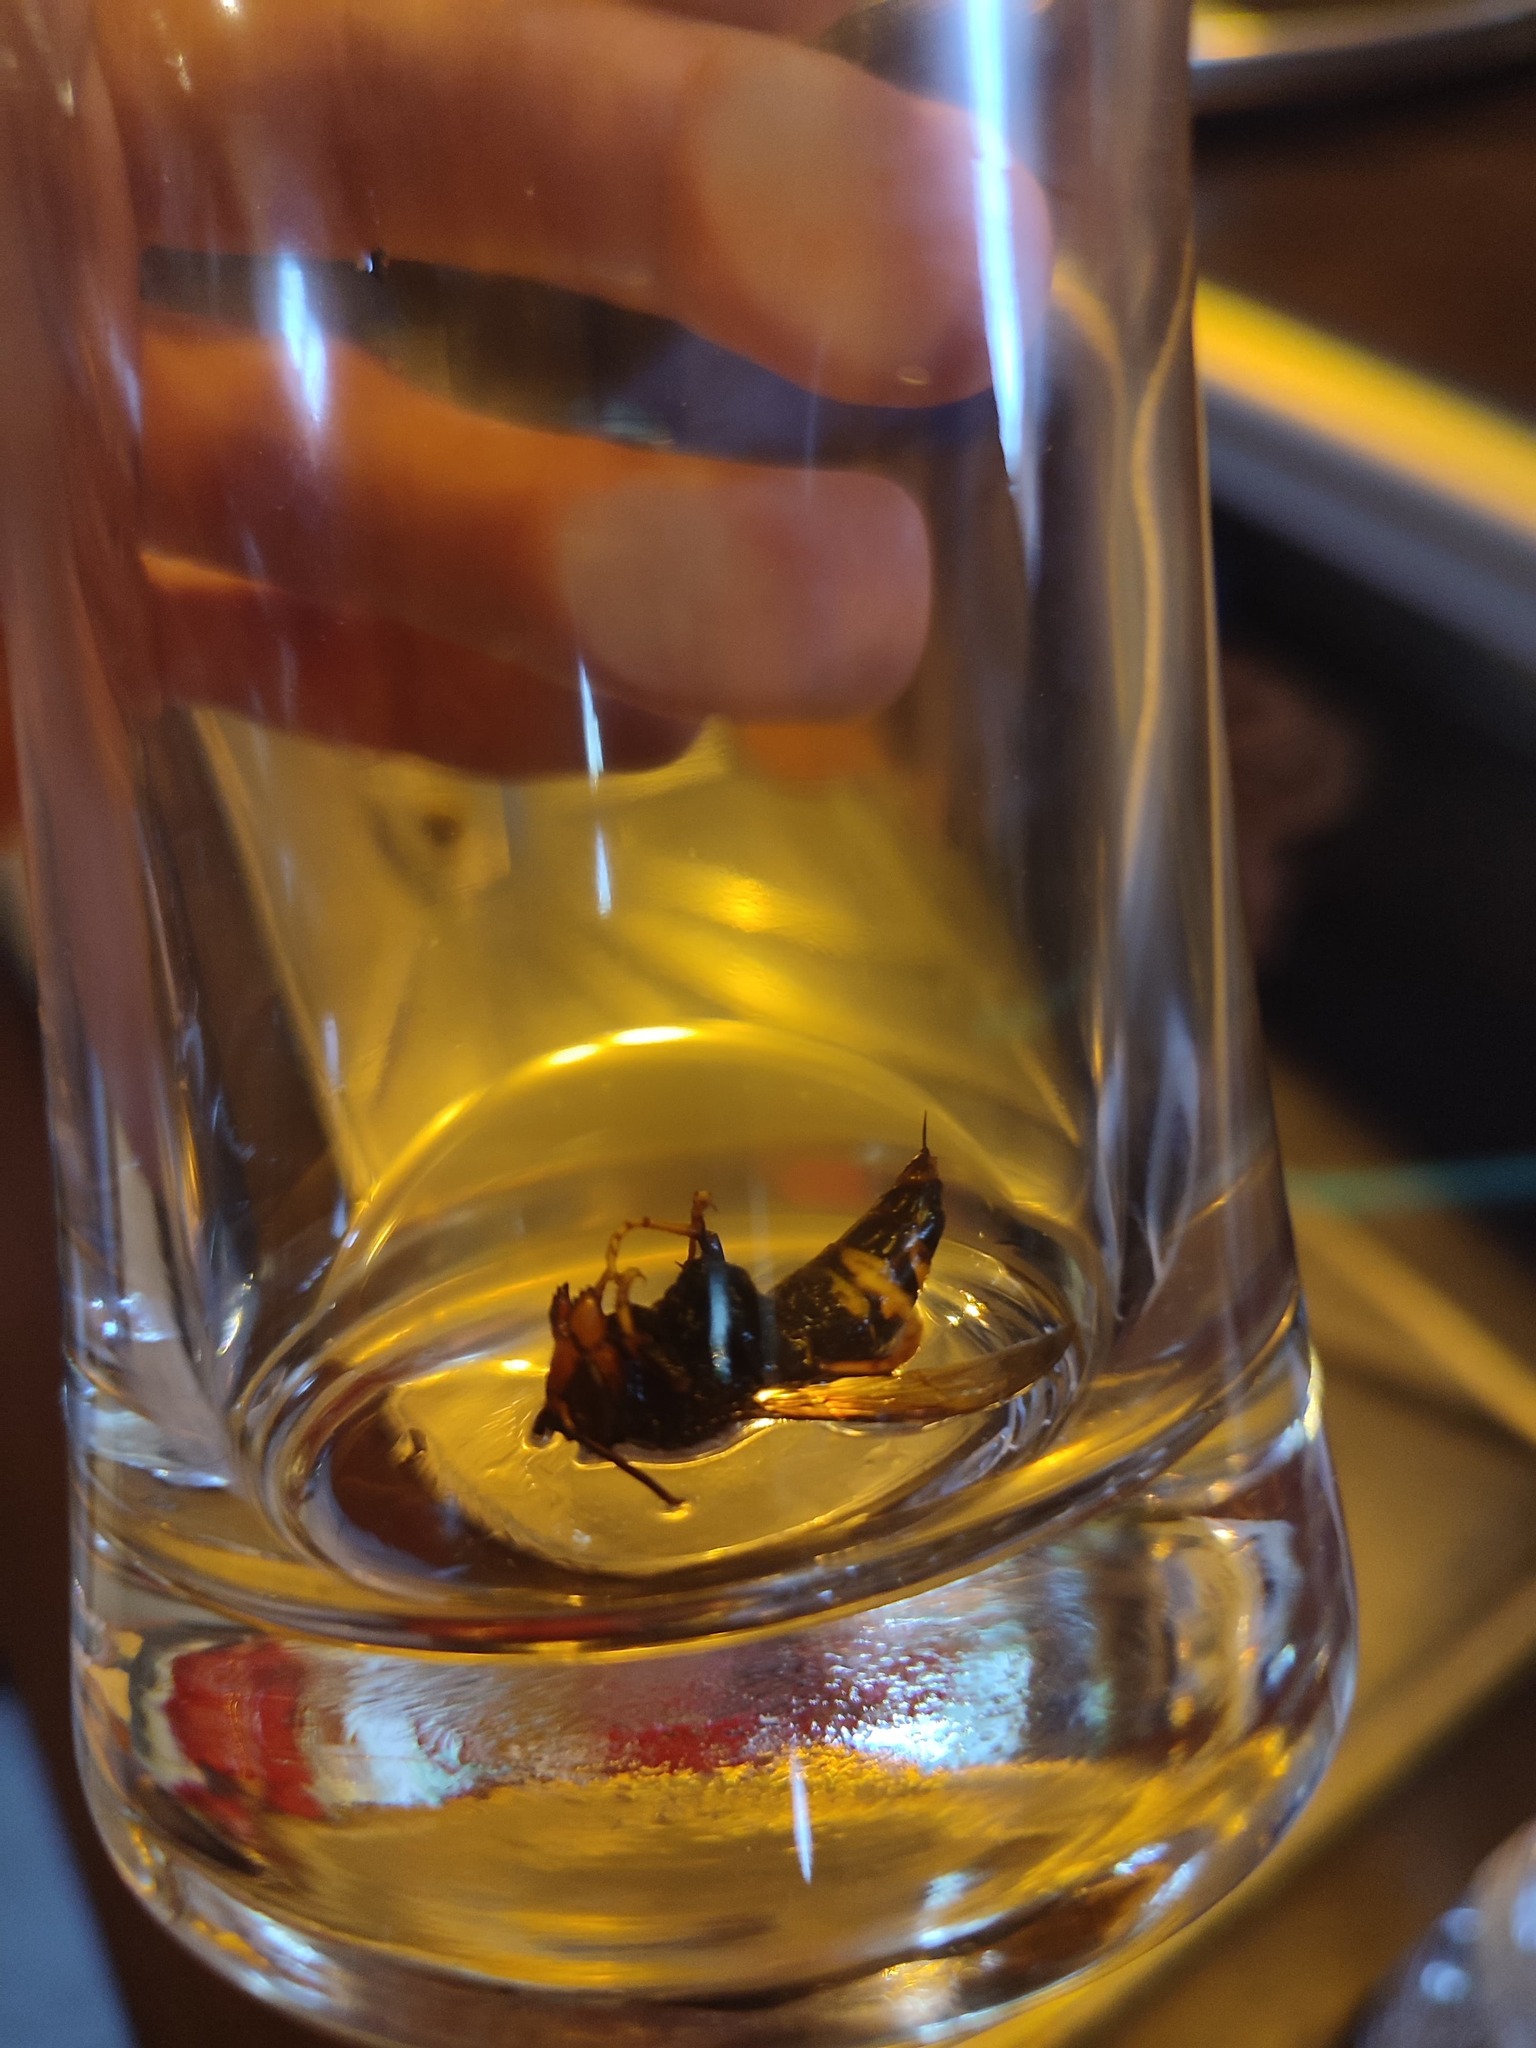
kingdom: Animalia
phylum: Arthropoda
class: Insecta
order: Hymenoptera
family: Vespidae
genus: Vespa
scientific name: Vespa velutina
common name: Asian hornet
